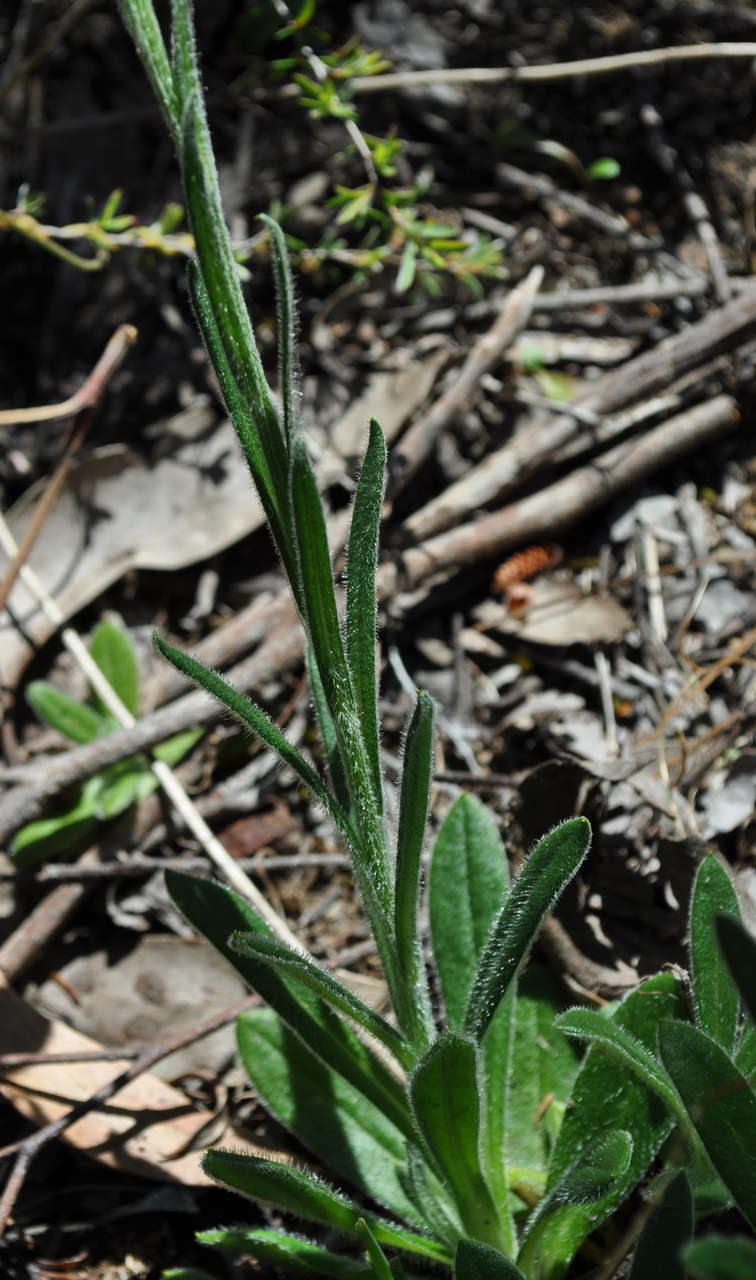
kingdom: Plantae
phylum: Tracheophyta
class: Magnoliopsida
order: Asterales
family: Asteraceae
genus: Coronidium
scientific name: Coronidium scorpioides
